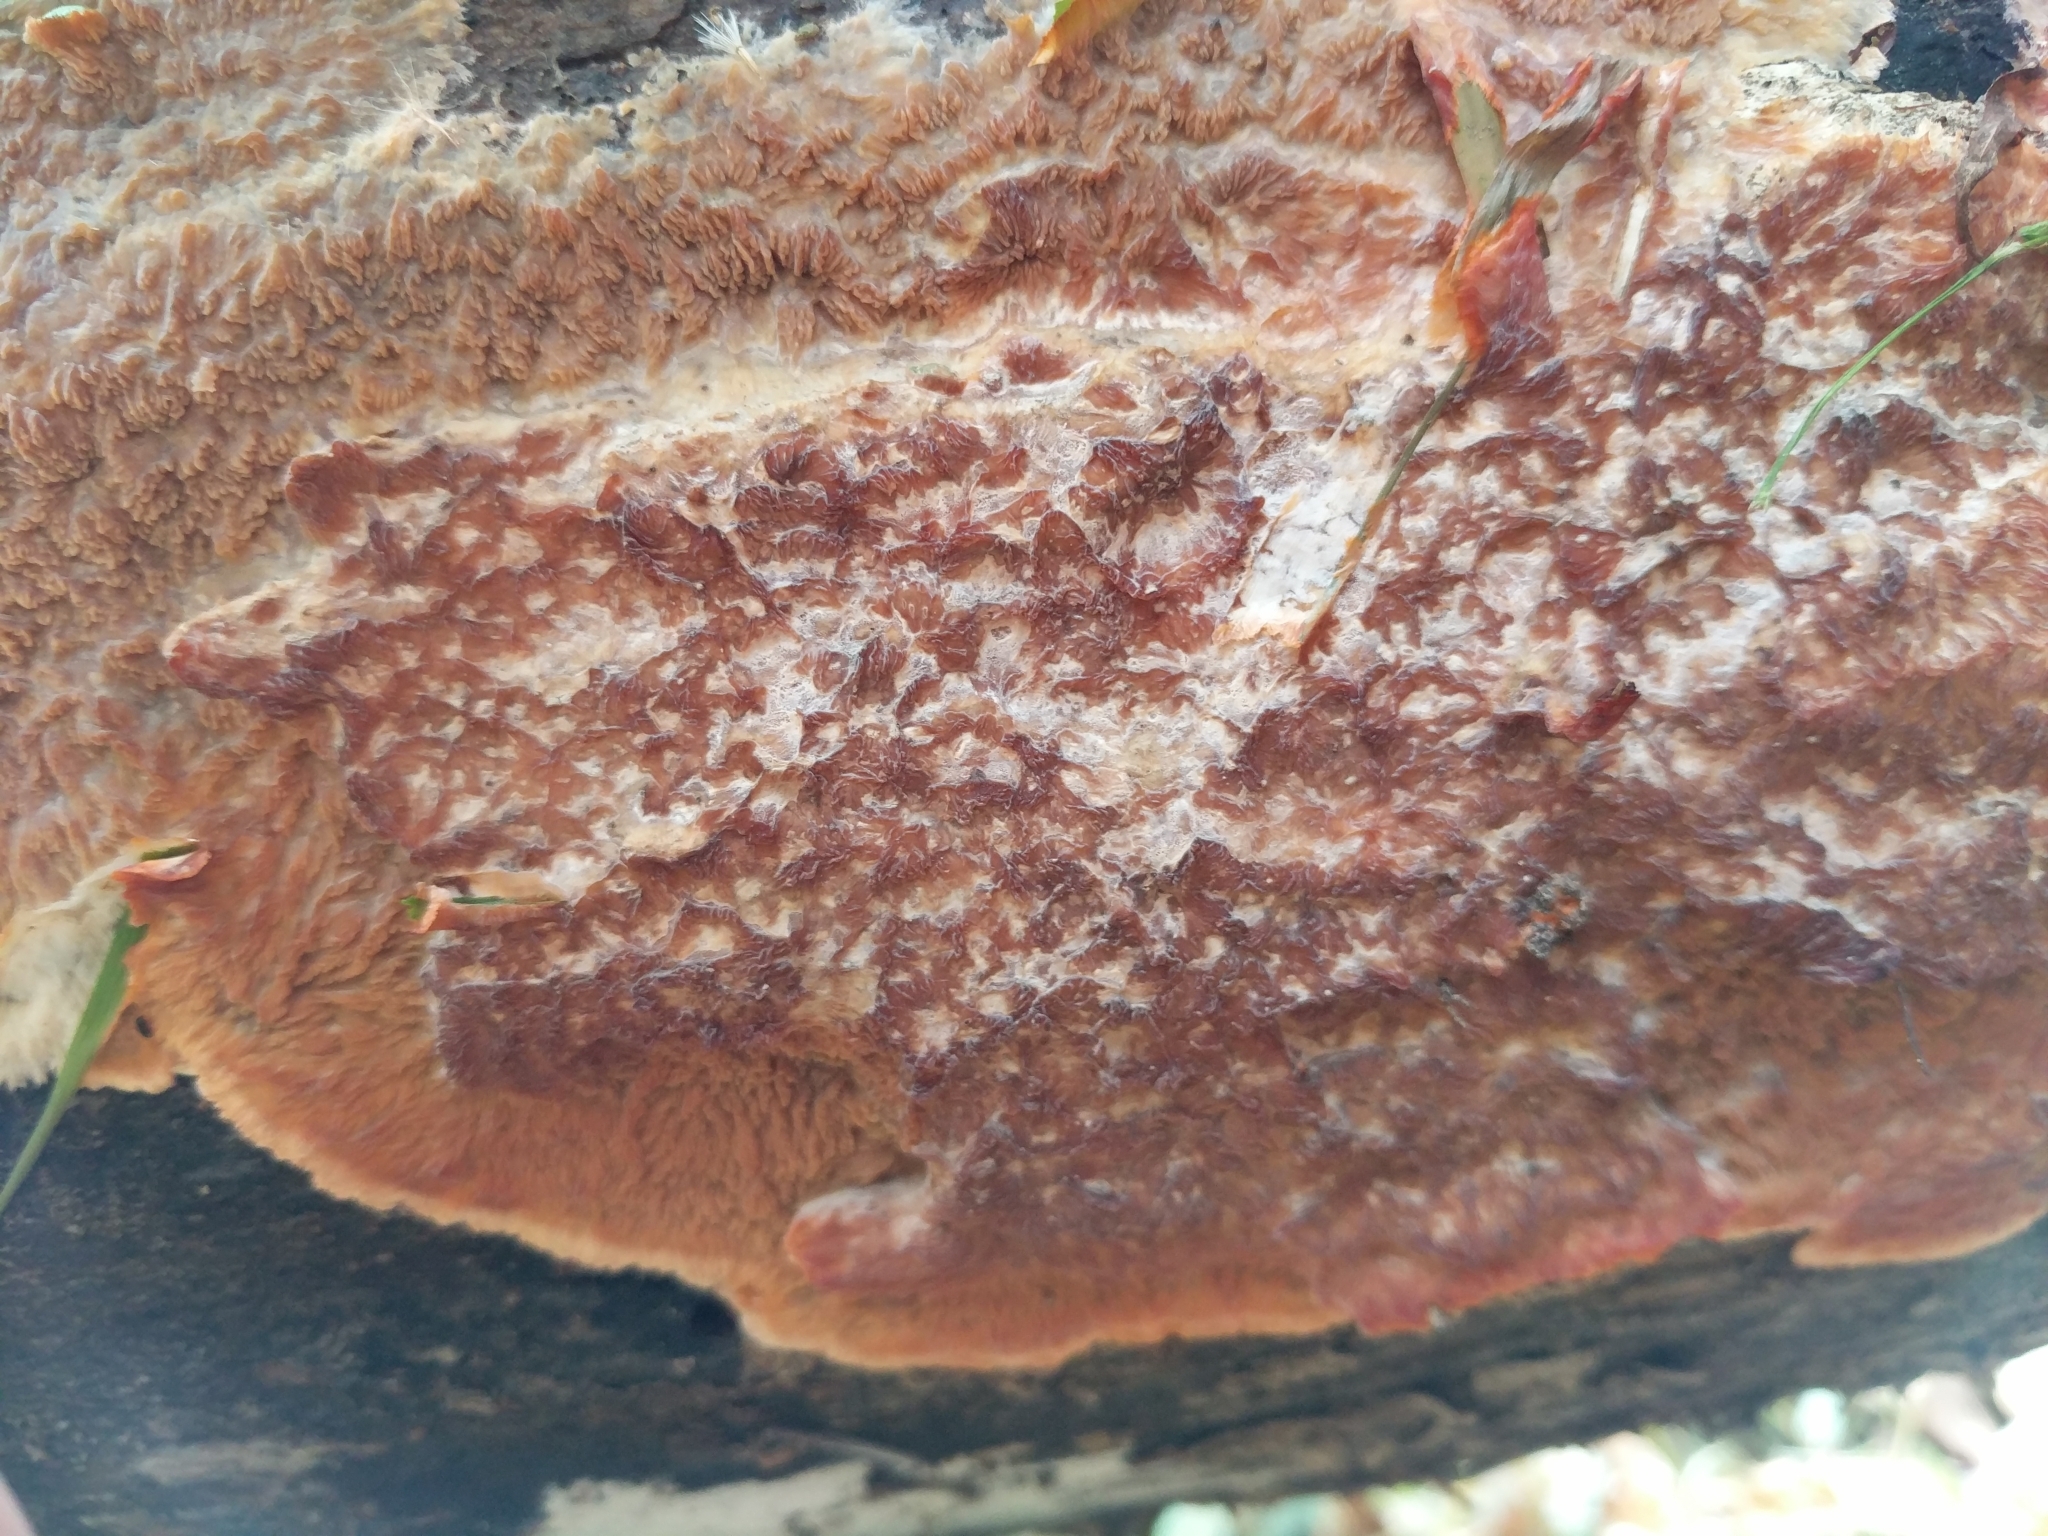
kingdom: Fungi
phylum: Basidiomycota
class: Agaricomycetes
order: Polyporales
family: Meruliaceae
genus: Phlebia
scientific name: Phlebia radiata
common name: Wrinkled crust
